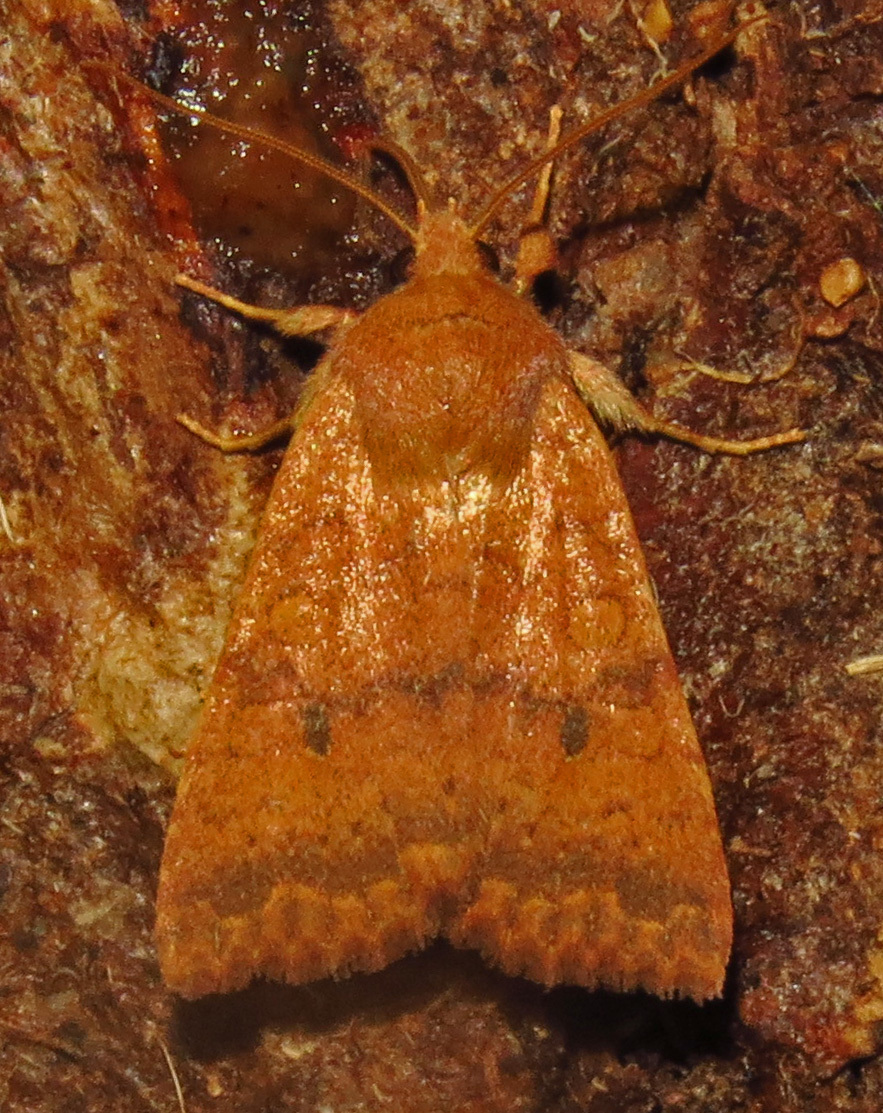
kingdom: Animalia
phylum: Arthropoda
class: Insecta
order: Lepidoptera
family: Noctuidae
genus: Agrochola
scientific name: Agrochola bicolorago
